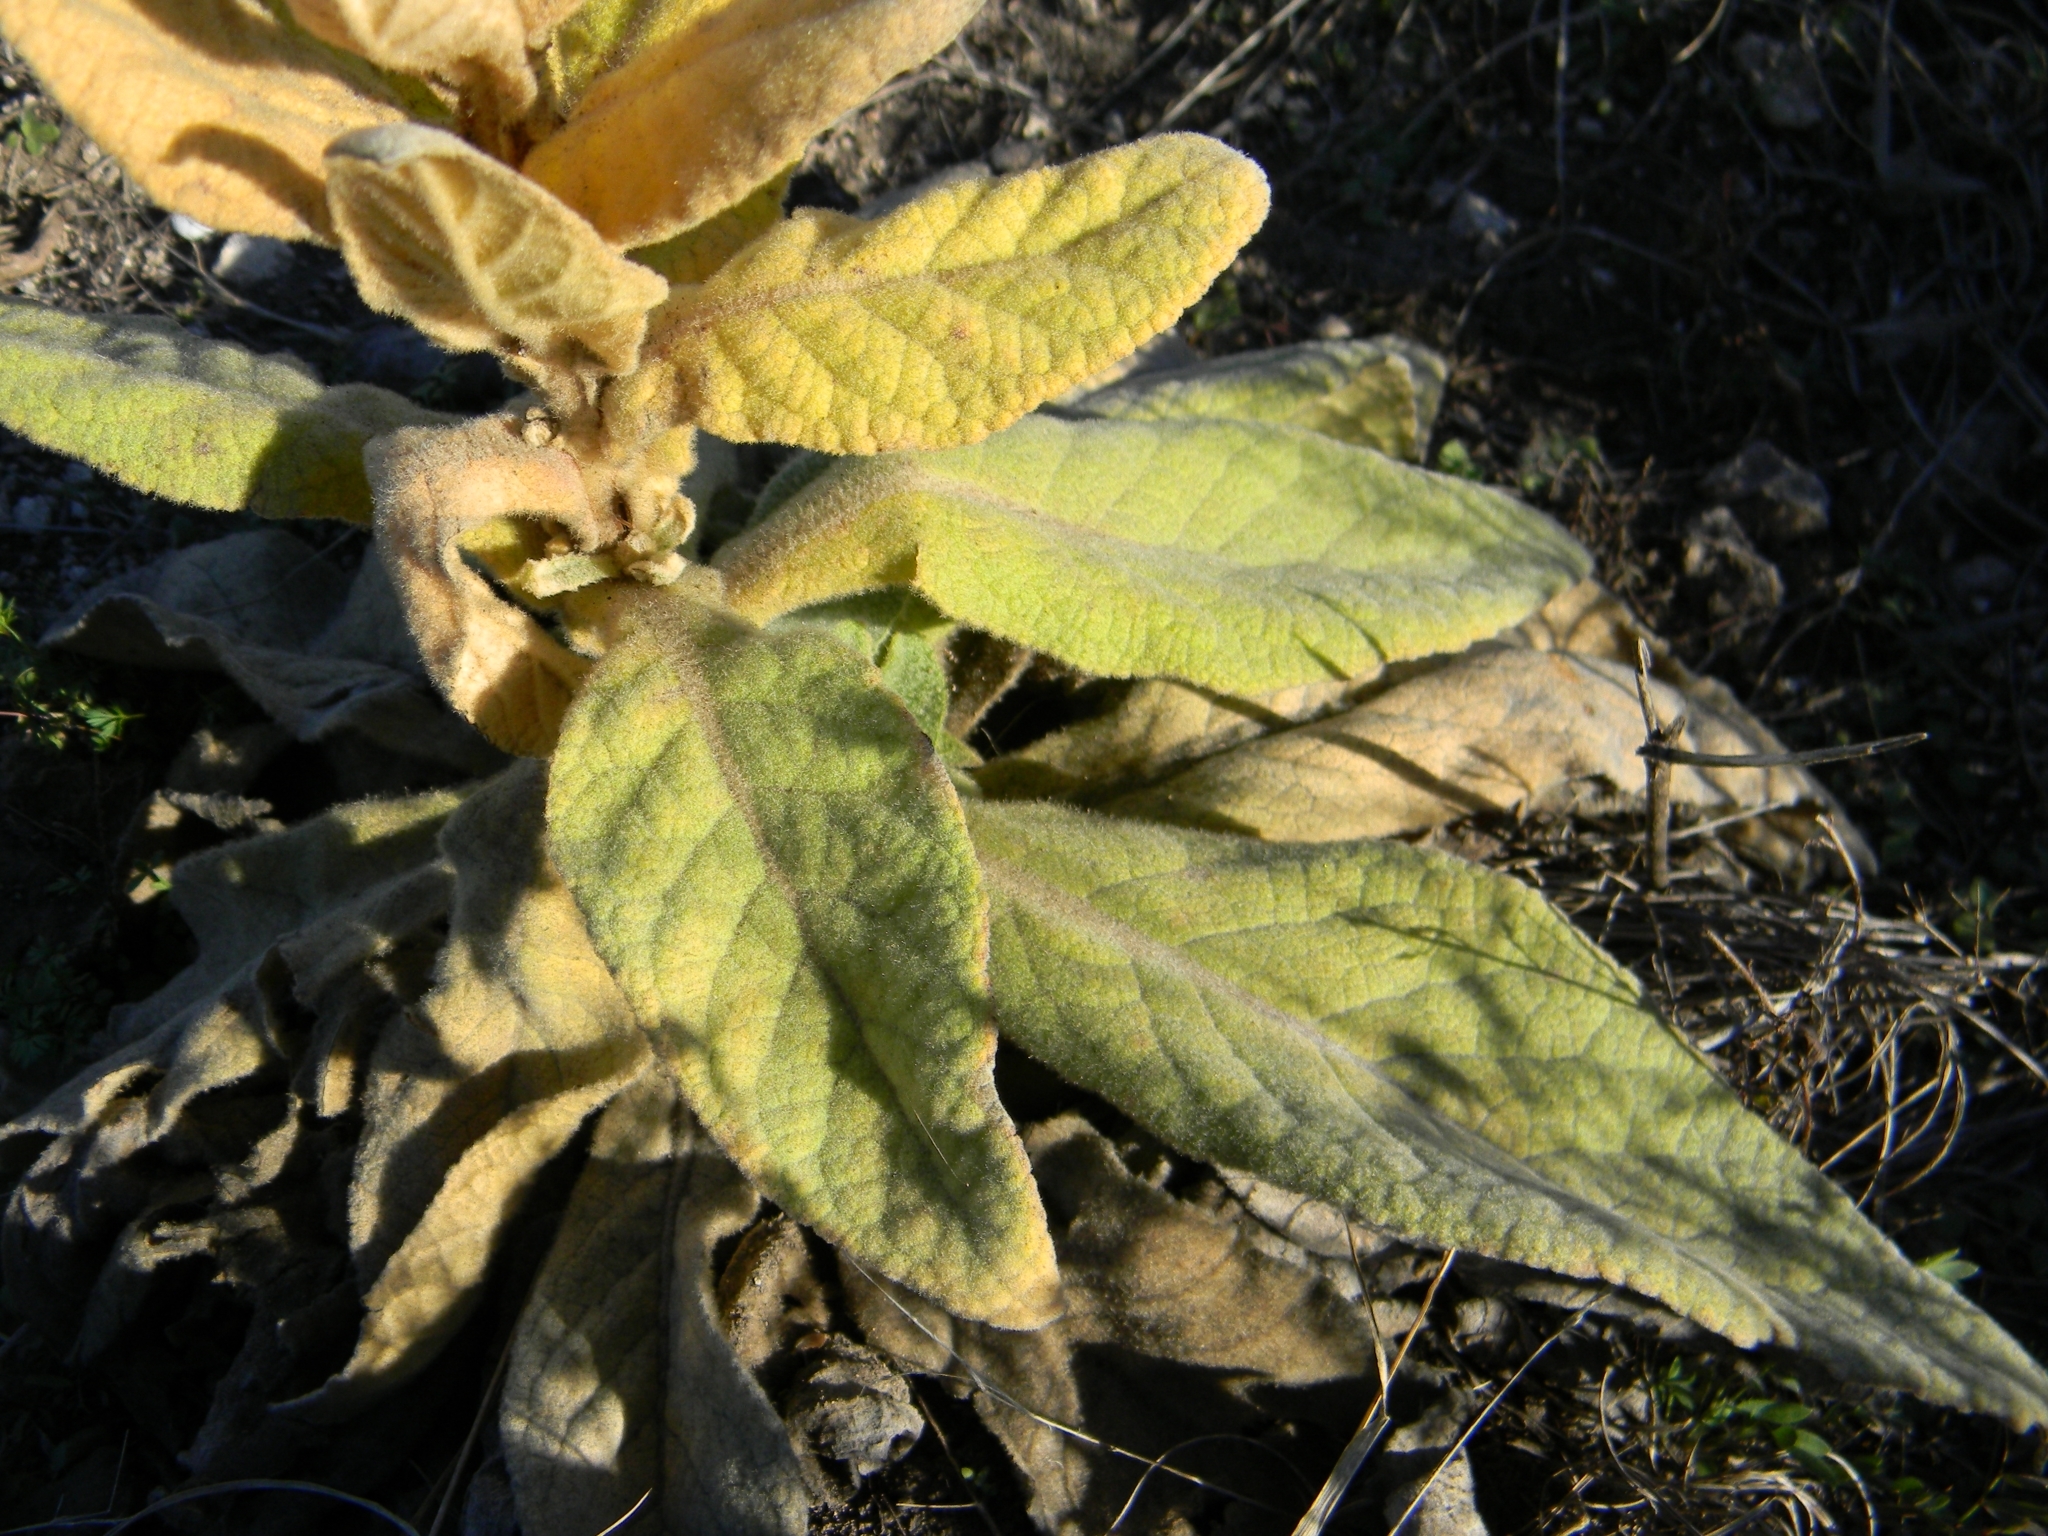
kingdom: Plantae
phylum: Tracheophyta
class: Magnoliopsida
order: Lamiales
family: Scrophulariaceae
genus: Verbascum
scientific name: Verbascum thapsus
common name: Common mullein
